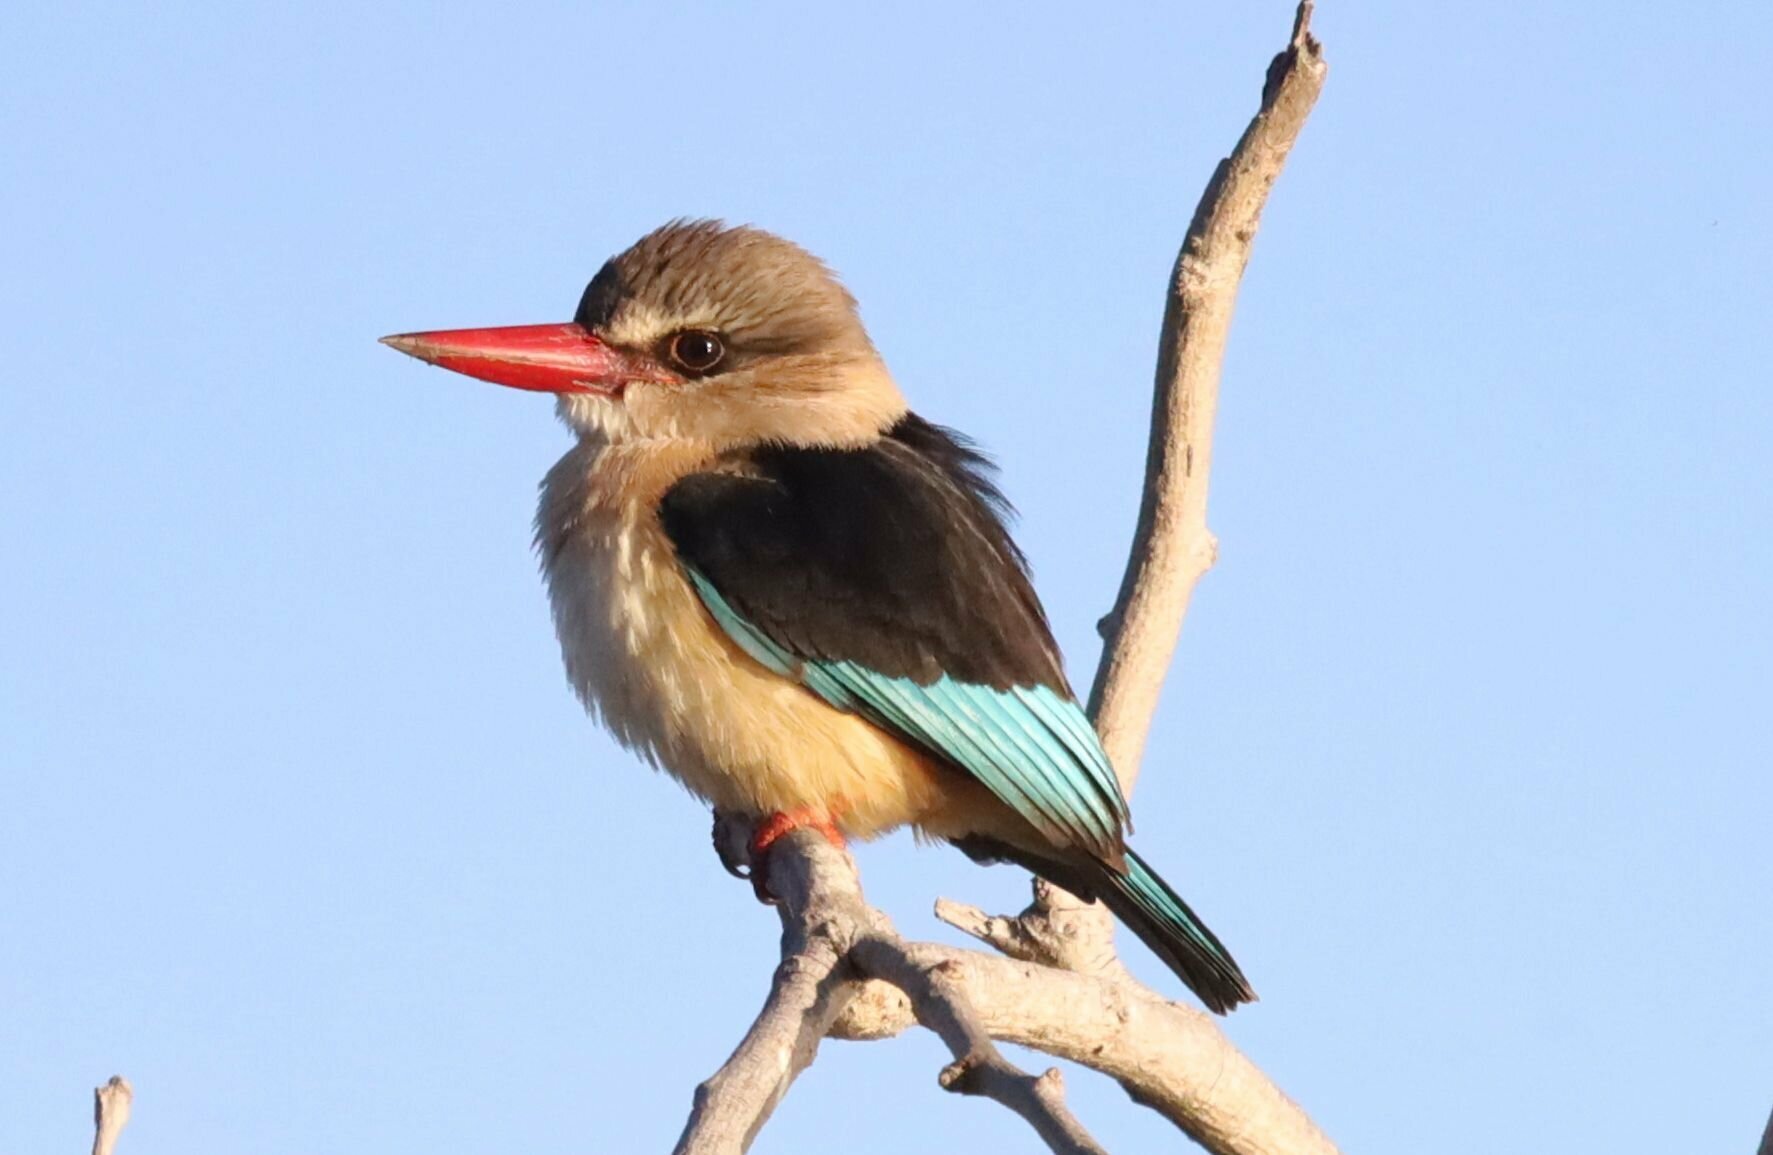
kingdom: Animalia
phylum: Chordata
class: Aves
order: Coraciiformes
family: Alcedinidae
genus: Halcyon
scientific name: Halcyon albiventris
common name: Brown-hooded kingfisher
